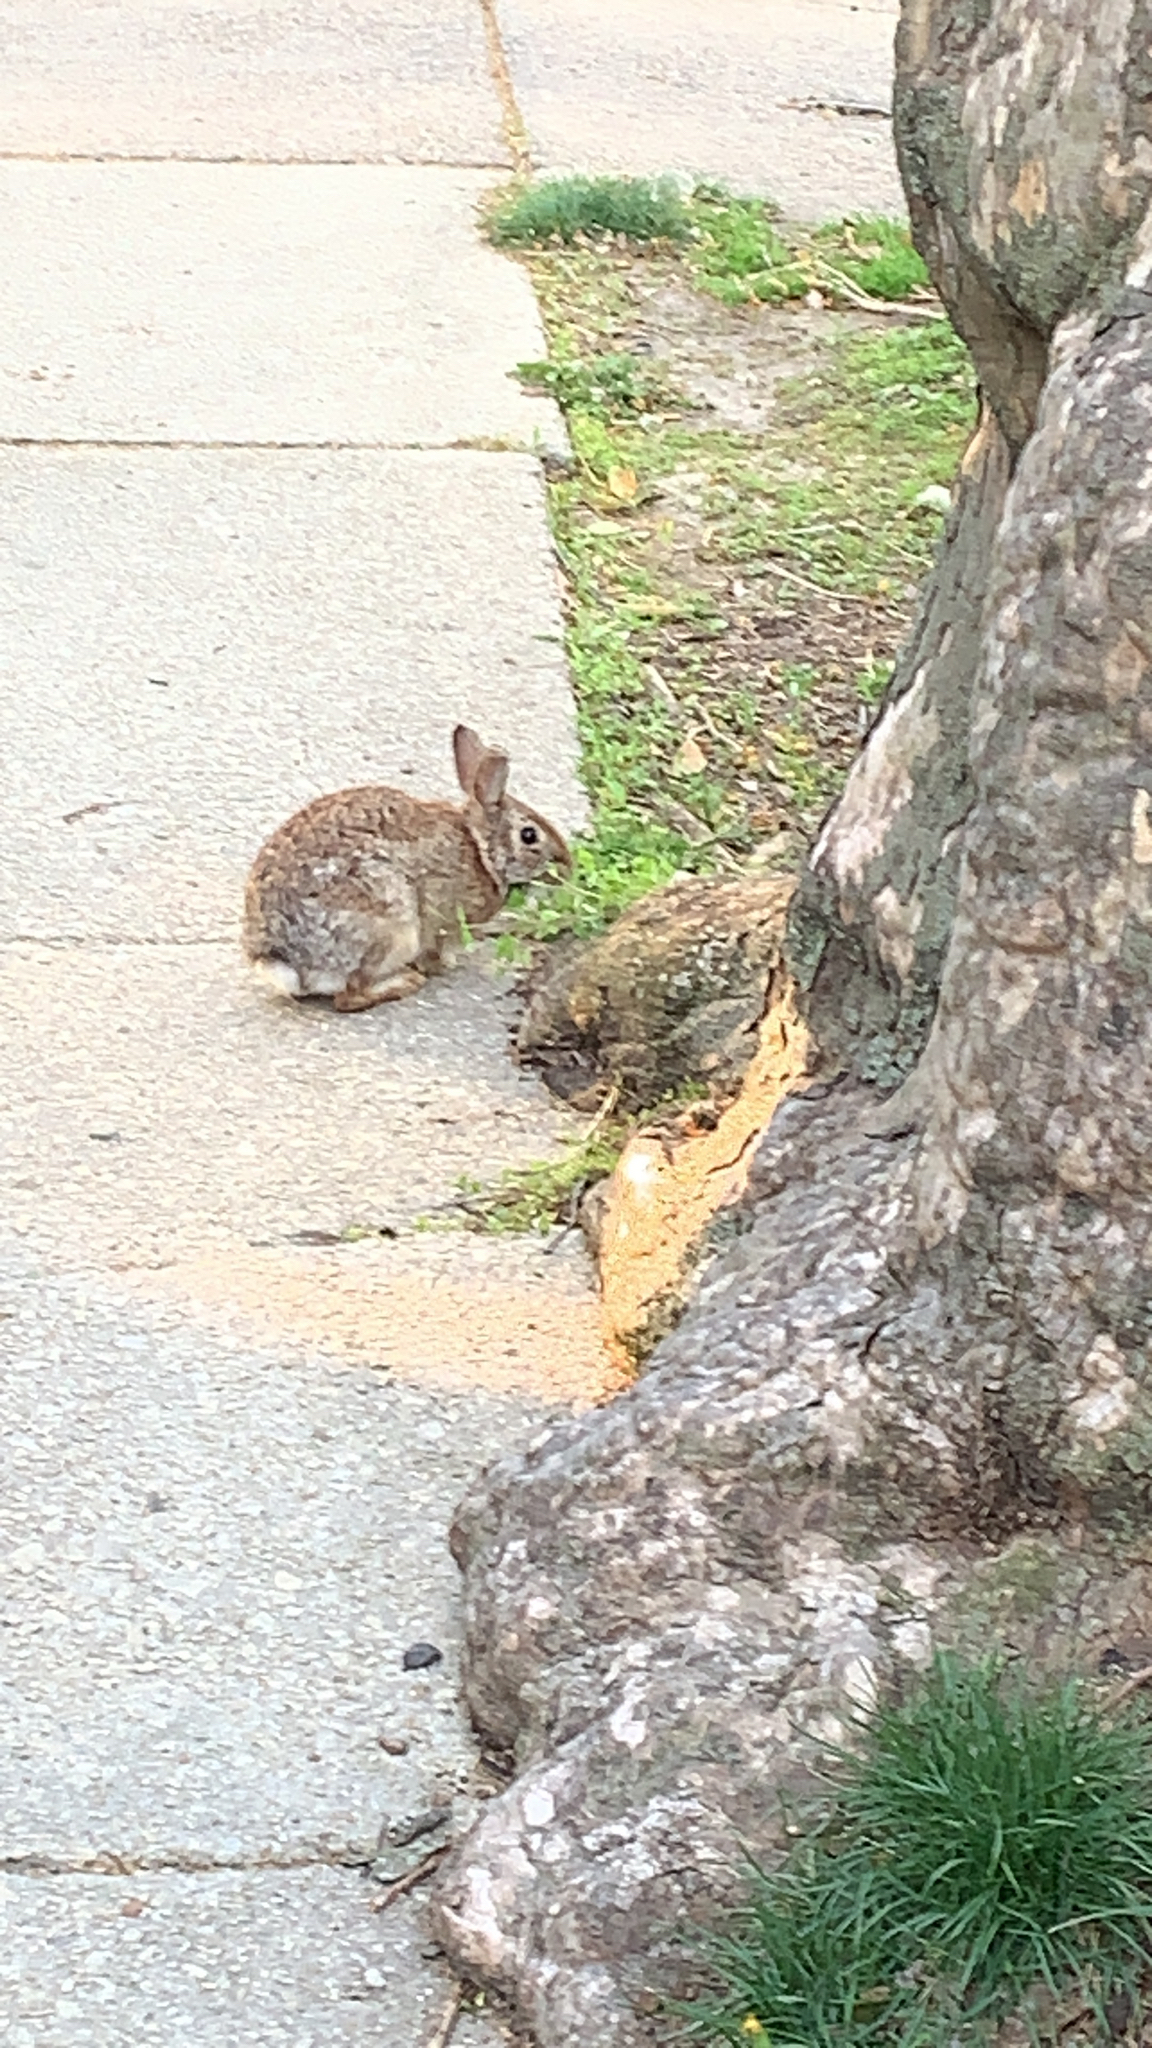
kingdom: Animalia
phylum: Chordata
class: Mammalia
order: Lagomorpha
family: Leporidae
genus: Sylvilagus
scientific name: Sylvilagus floridanus
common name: Eastern cottontail
